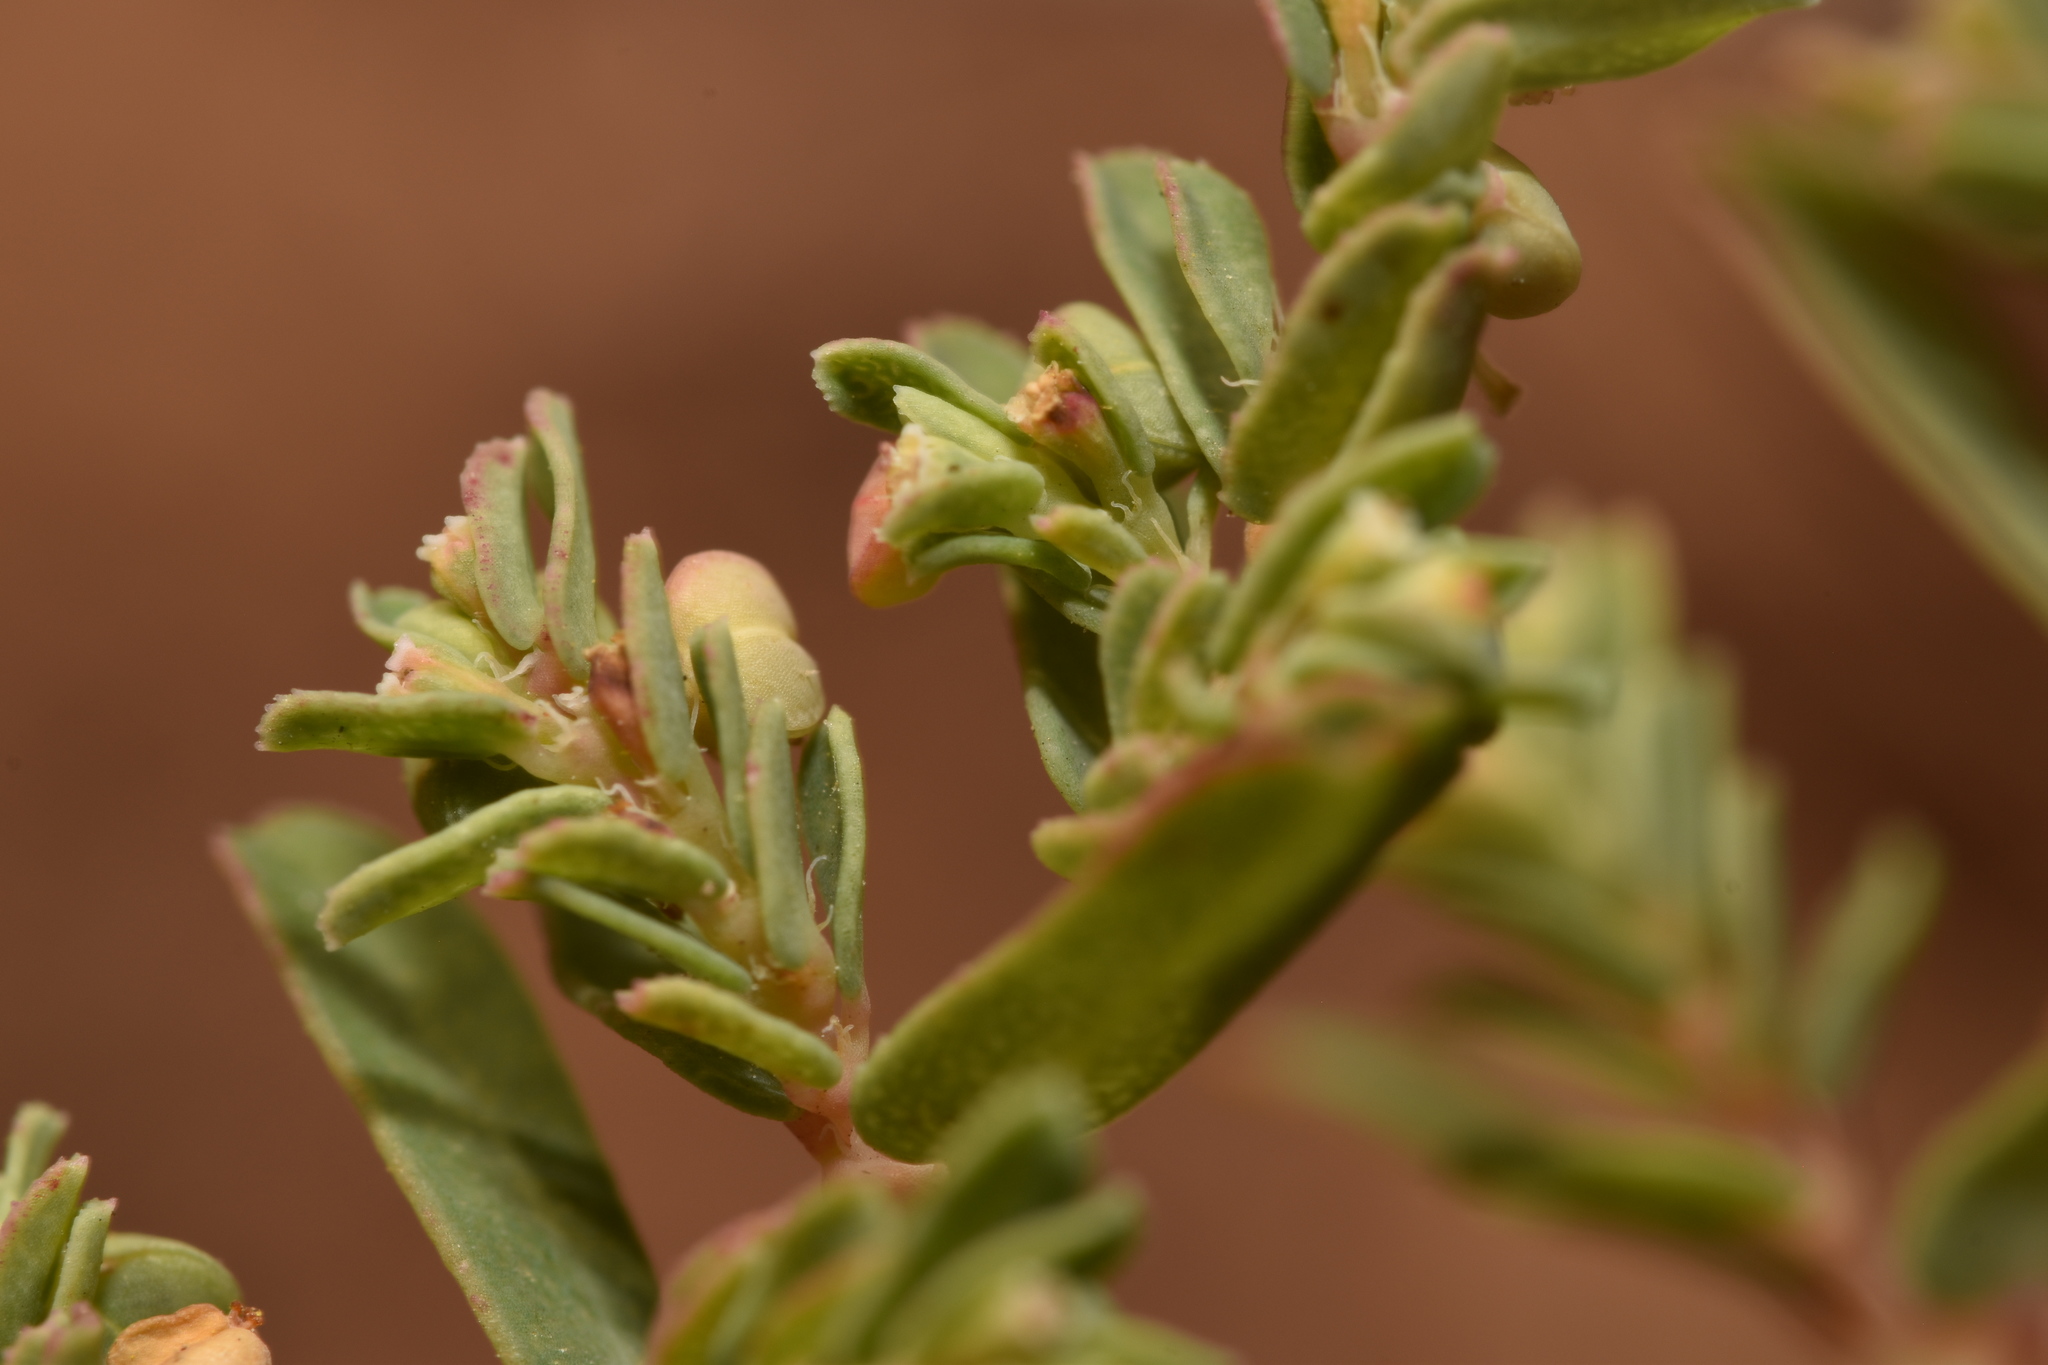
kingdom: Plantae
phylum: Tracheophyta
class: Magnoliopsida
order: Malpighiales
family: Euphorbiaceae
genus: Euphorbia
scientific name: Euphorbia glyptosperma
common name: Corrugate-seeded spurge
